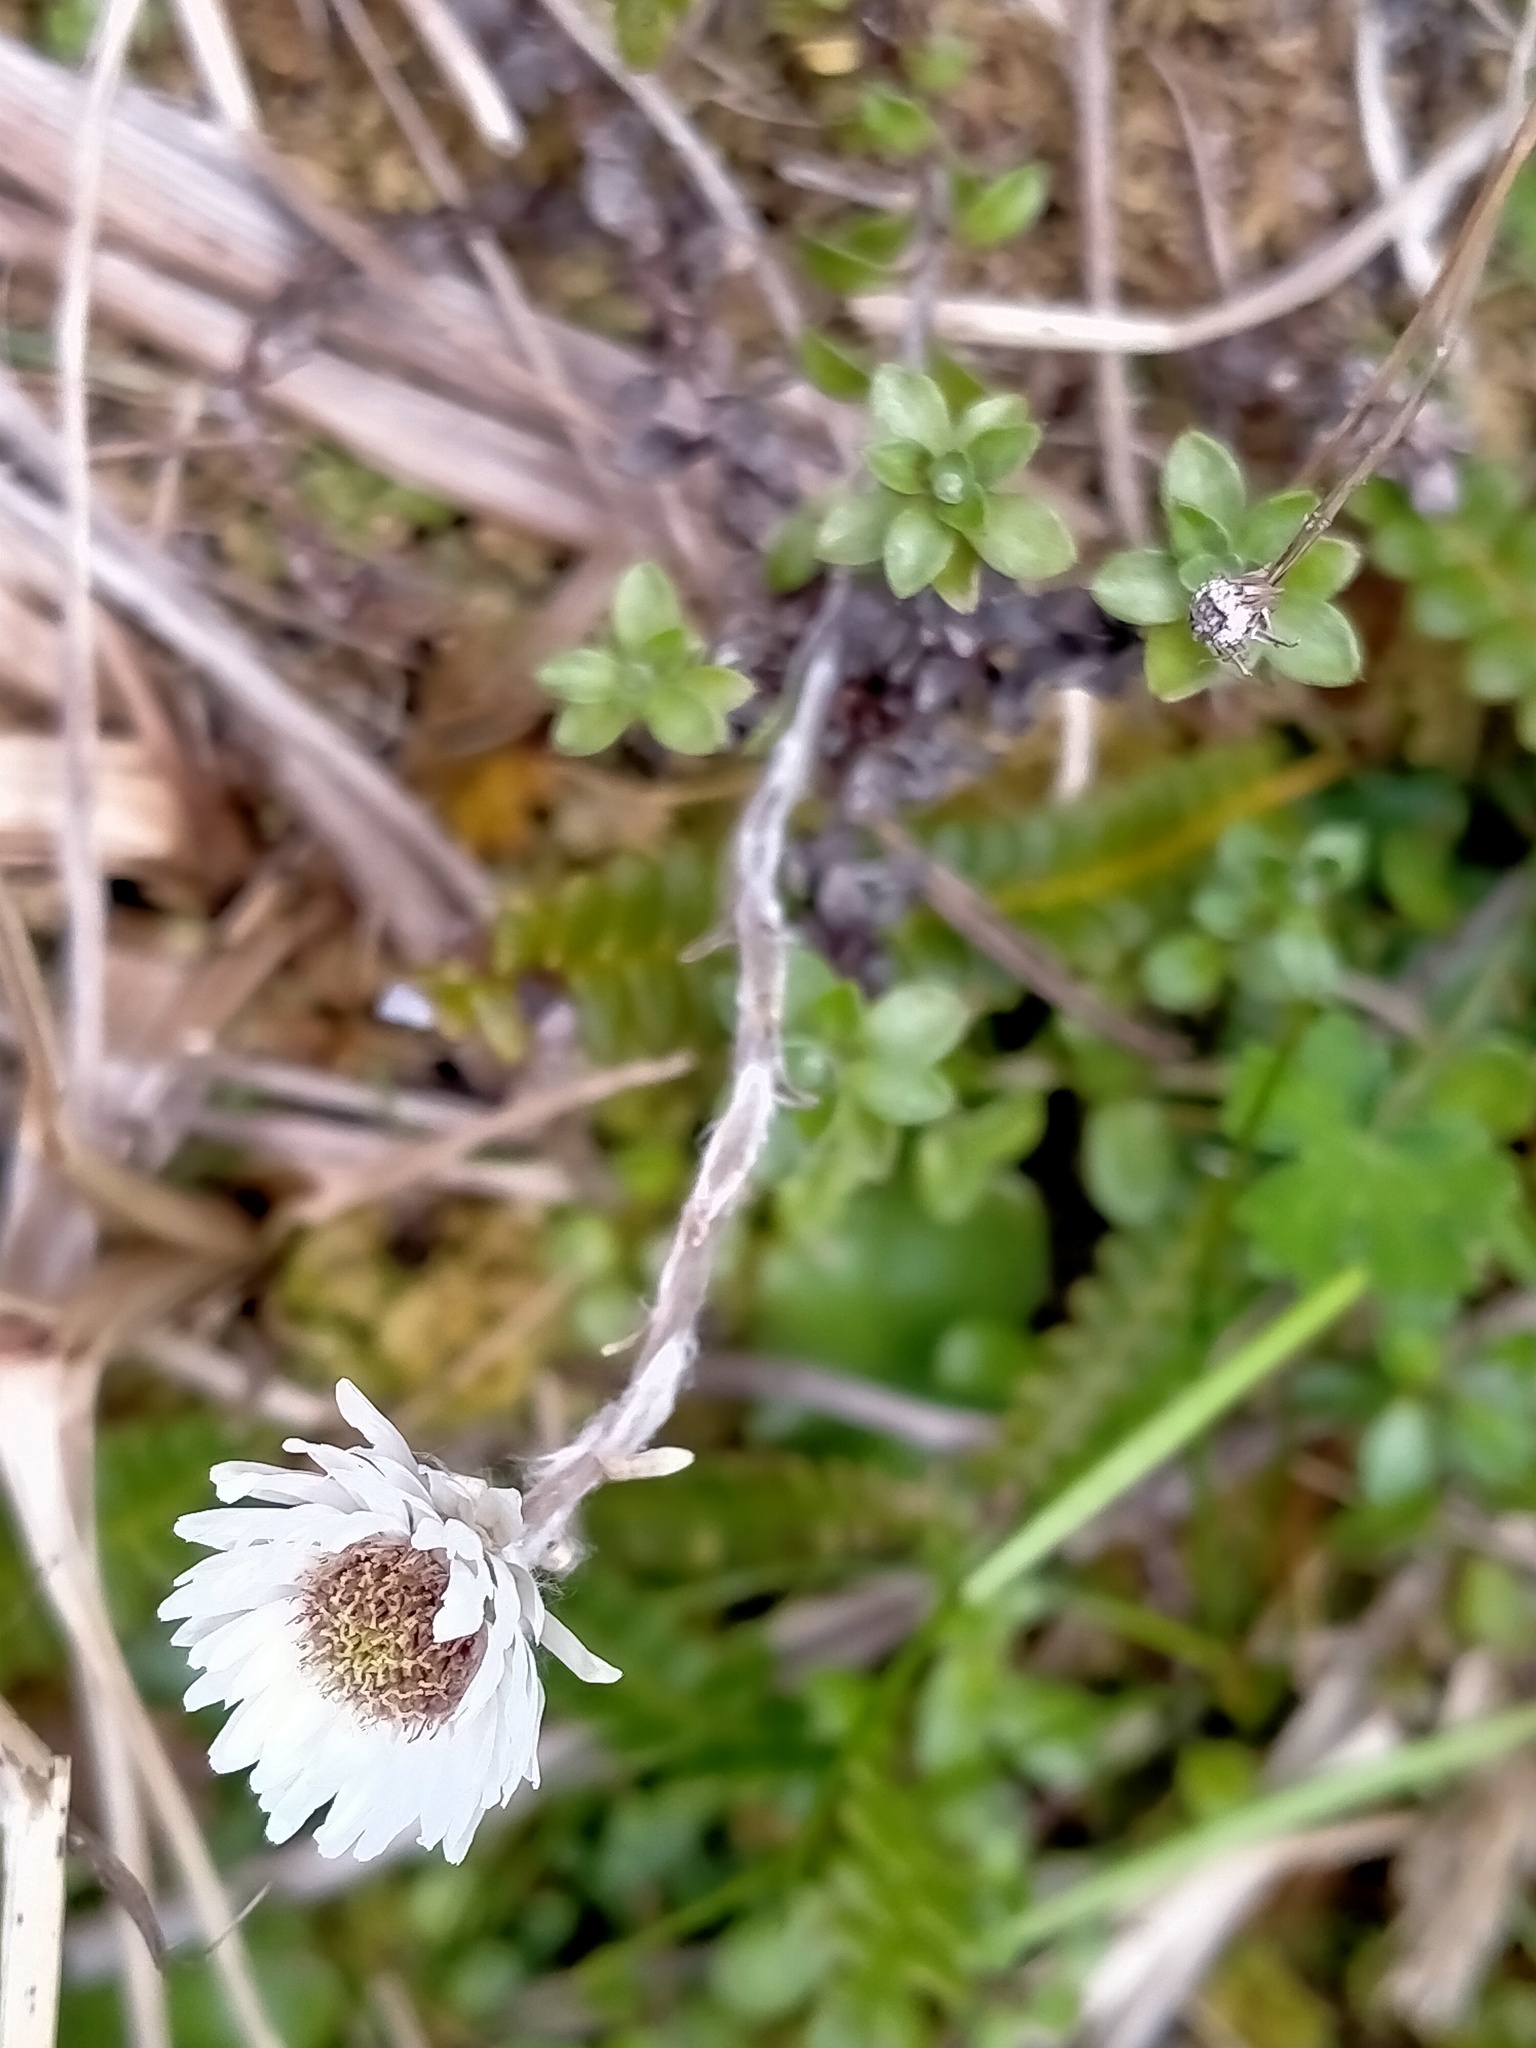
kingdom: Plantae
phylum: Tracheophyta
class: Magnoliopsida
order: Asterales
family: Asteraceae
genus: Anaphalioides
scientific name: Anaphalioides bellidioides
